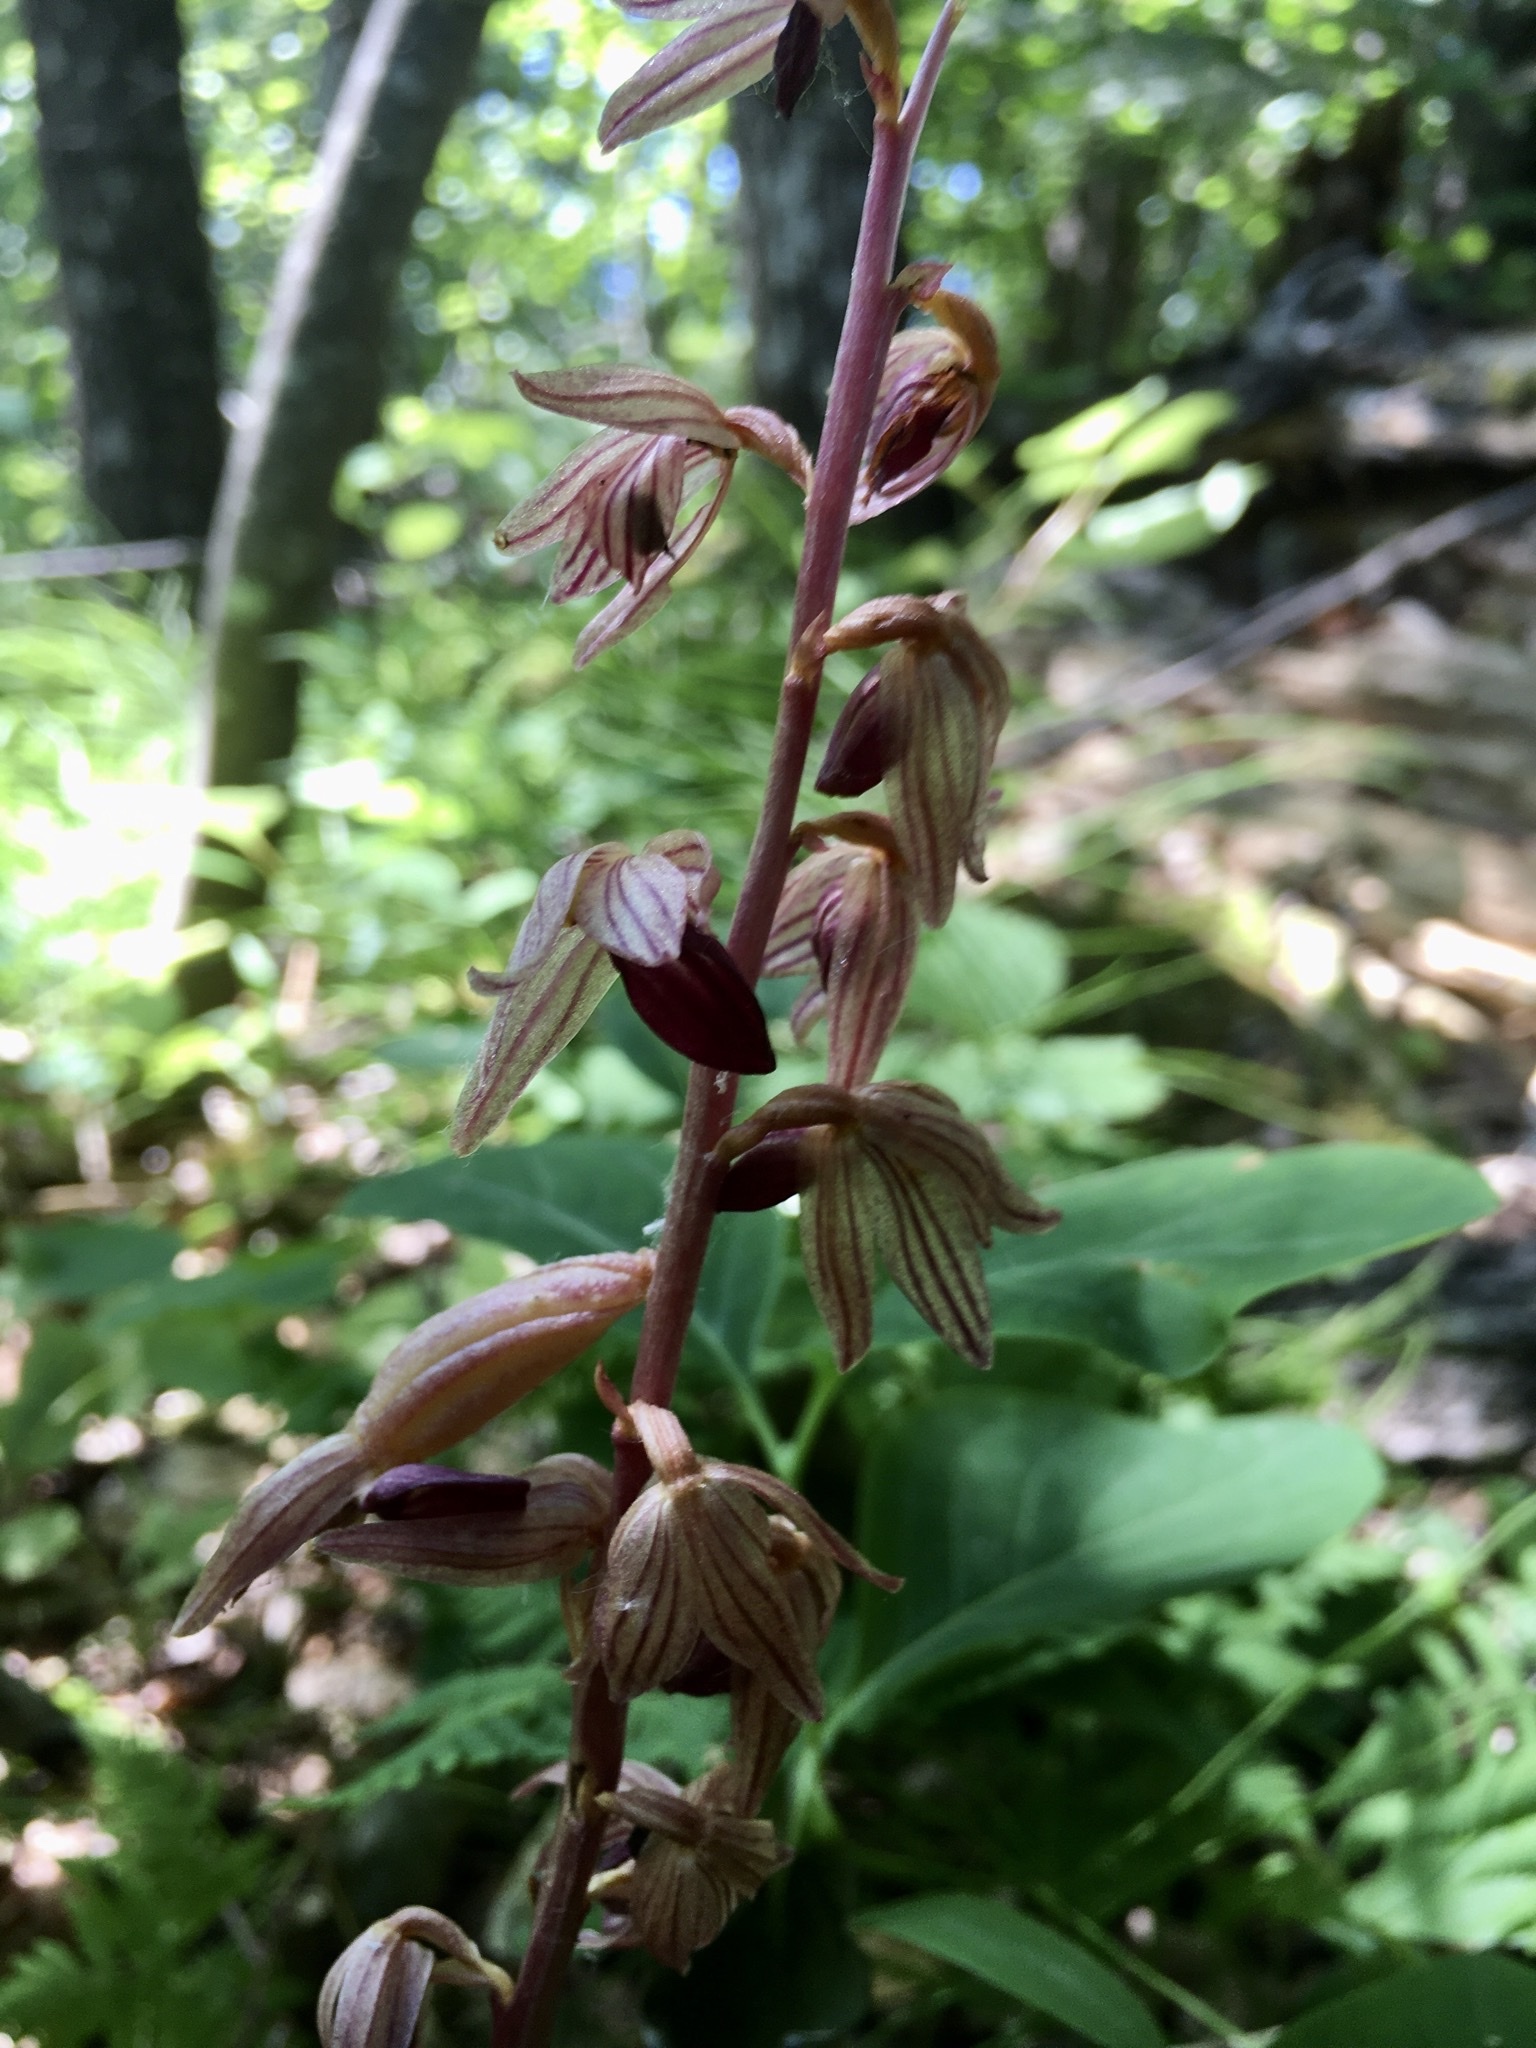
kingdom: Plantae
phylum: Tracheophyta
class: Liliopsida
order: Asparagales
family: Orchidaceae
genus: Corallorhiza
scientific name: Corallorhiza striata
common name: Hooded coralroot
